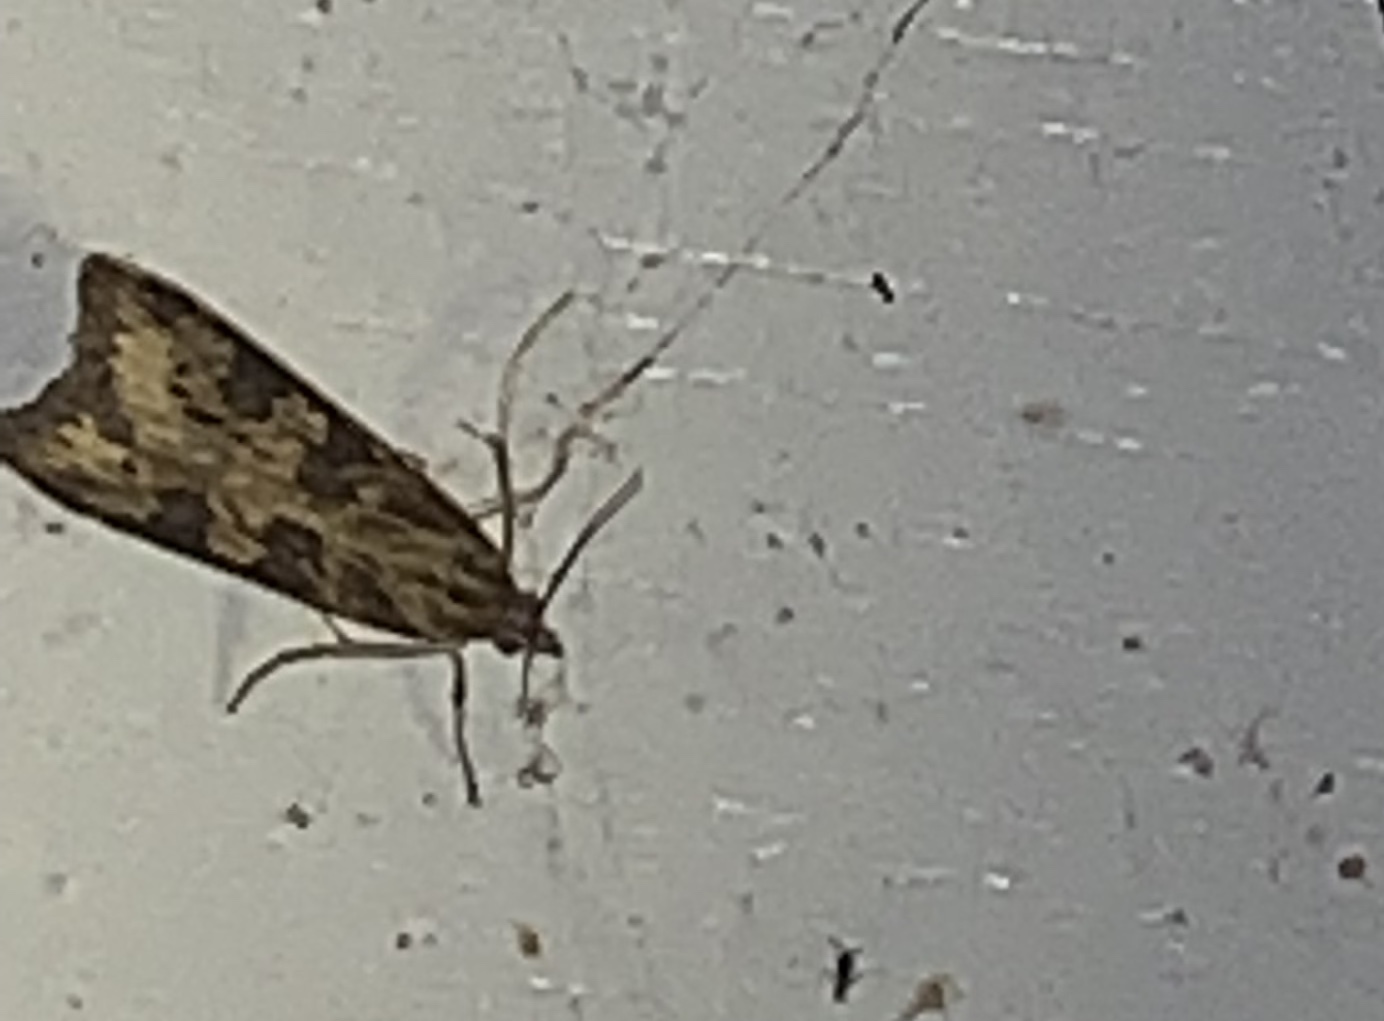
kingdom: Animalia
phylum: Arthropoda
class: Insecta
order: Lepidoptera
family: Crambidae
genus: Nomophila
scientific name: Nomophila nearctica
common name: American rush veneer
